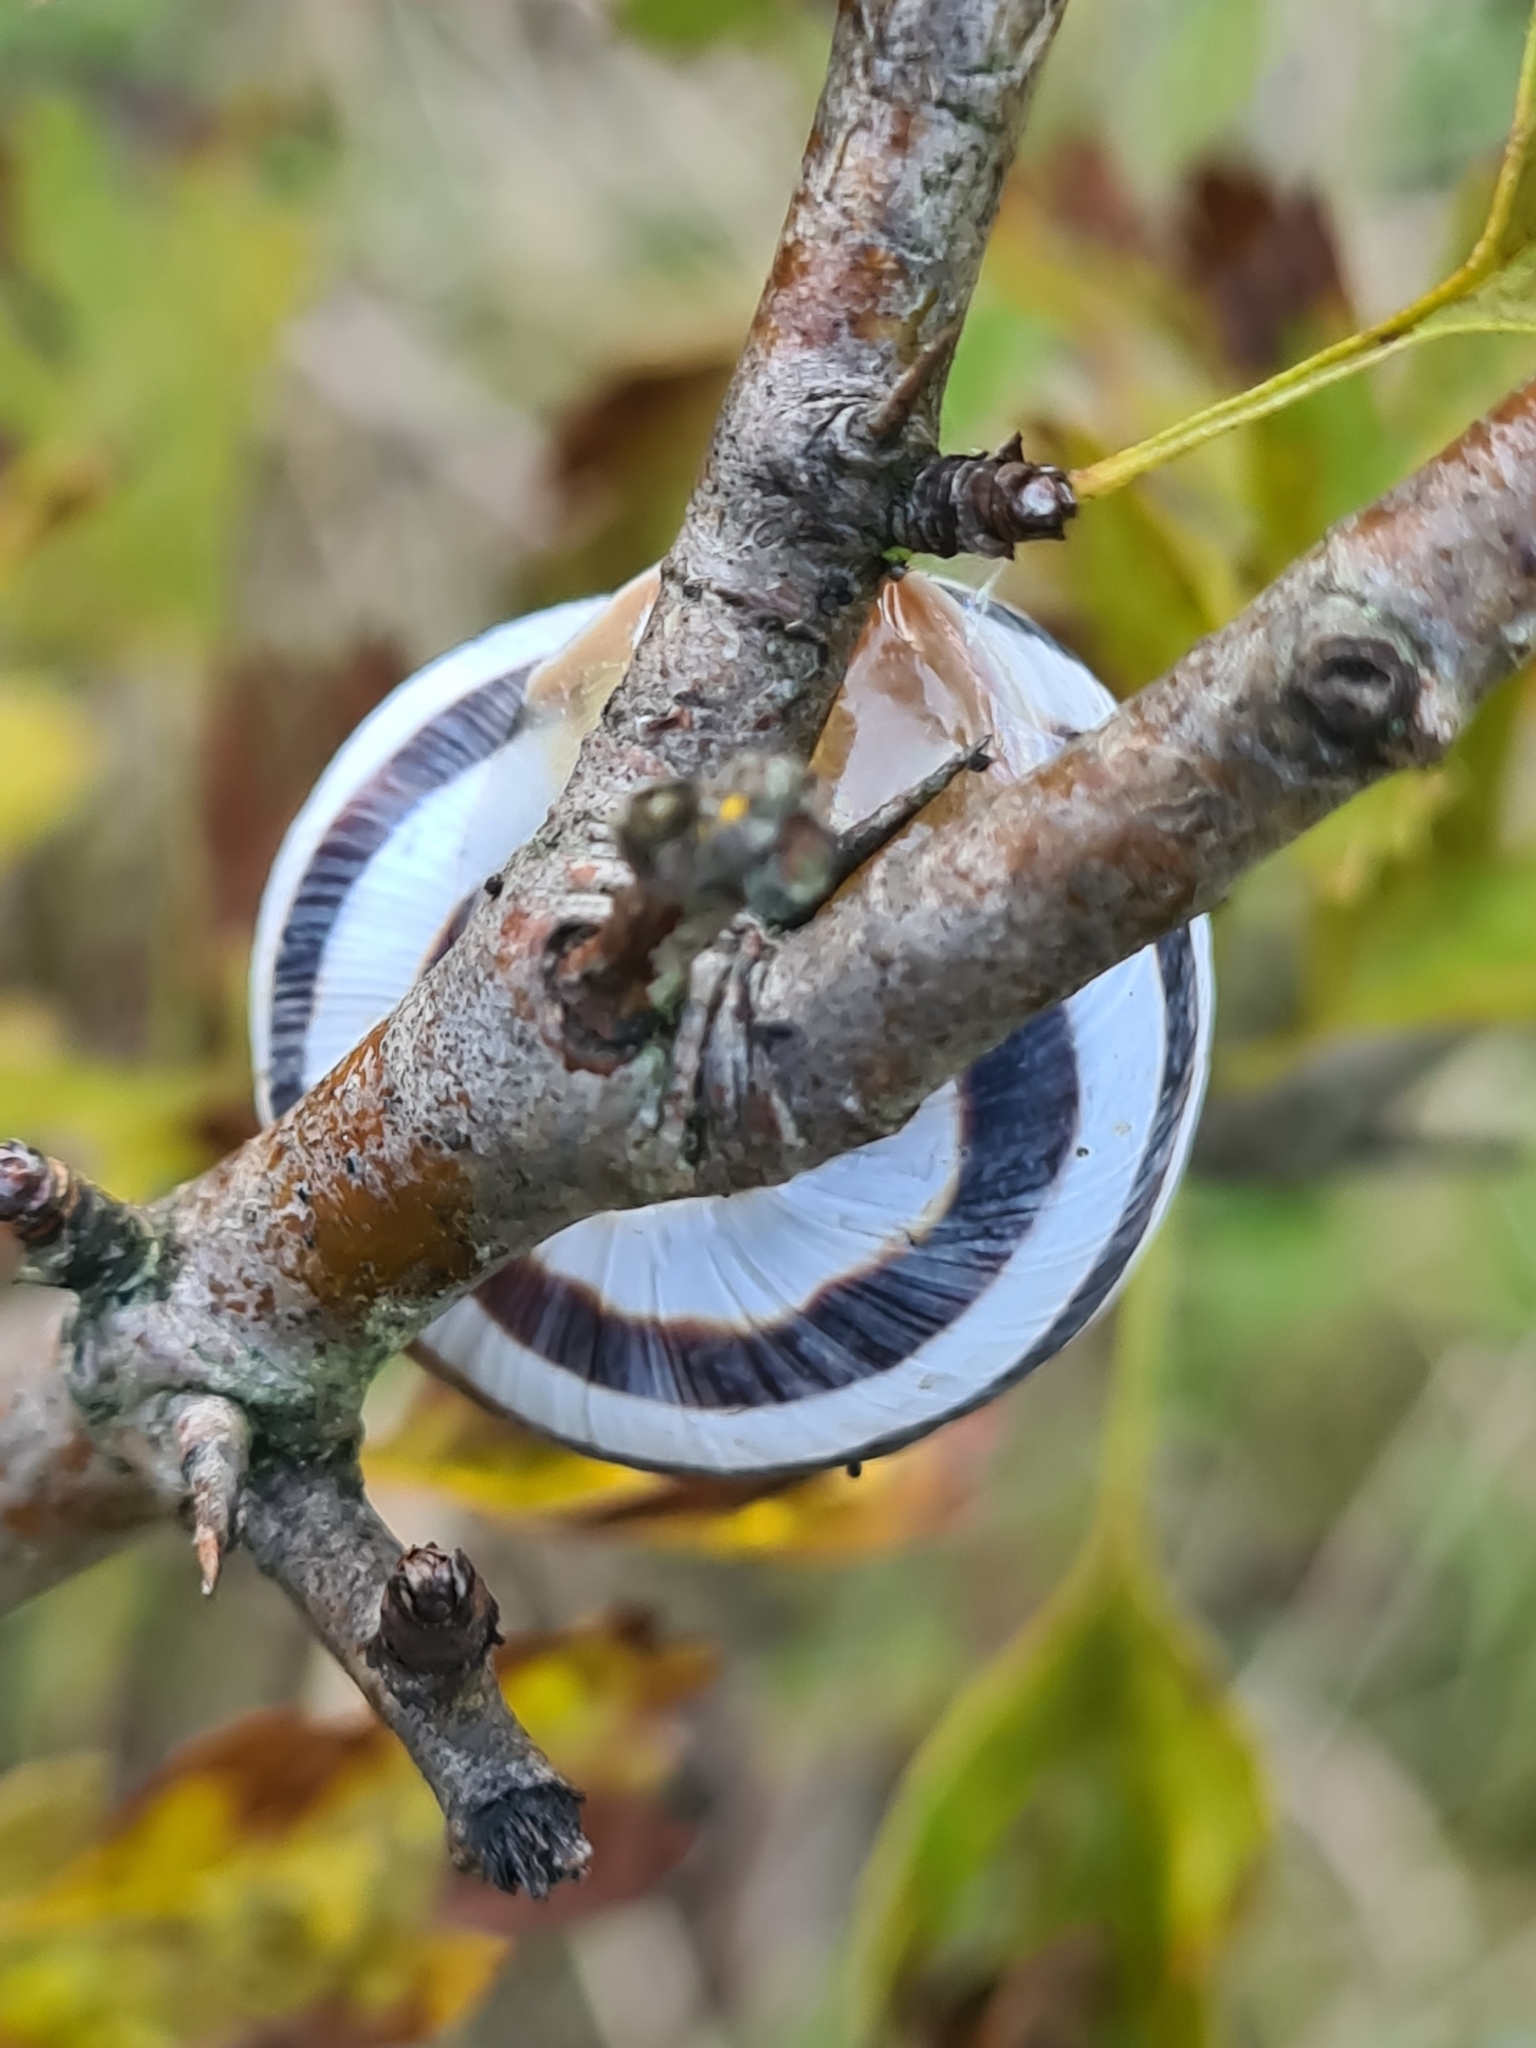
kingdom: Animalia
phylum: Mollusca
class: Gastropoda
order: Stylommatophora
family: Helicidae
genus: Caucasotachea
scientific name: Caucasotachea vindobonensis
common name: European helicid land snail
